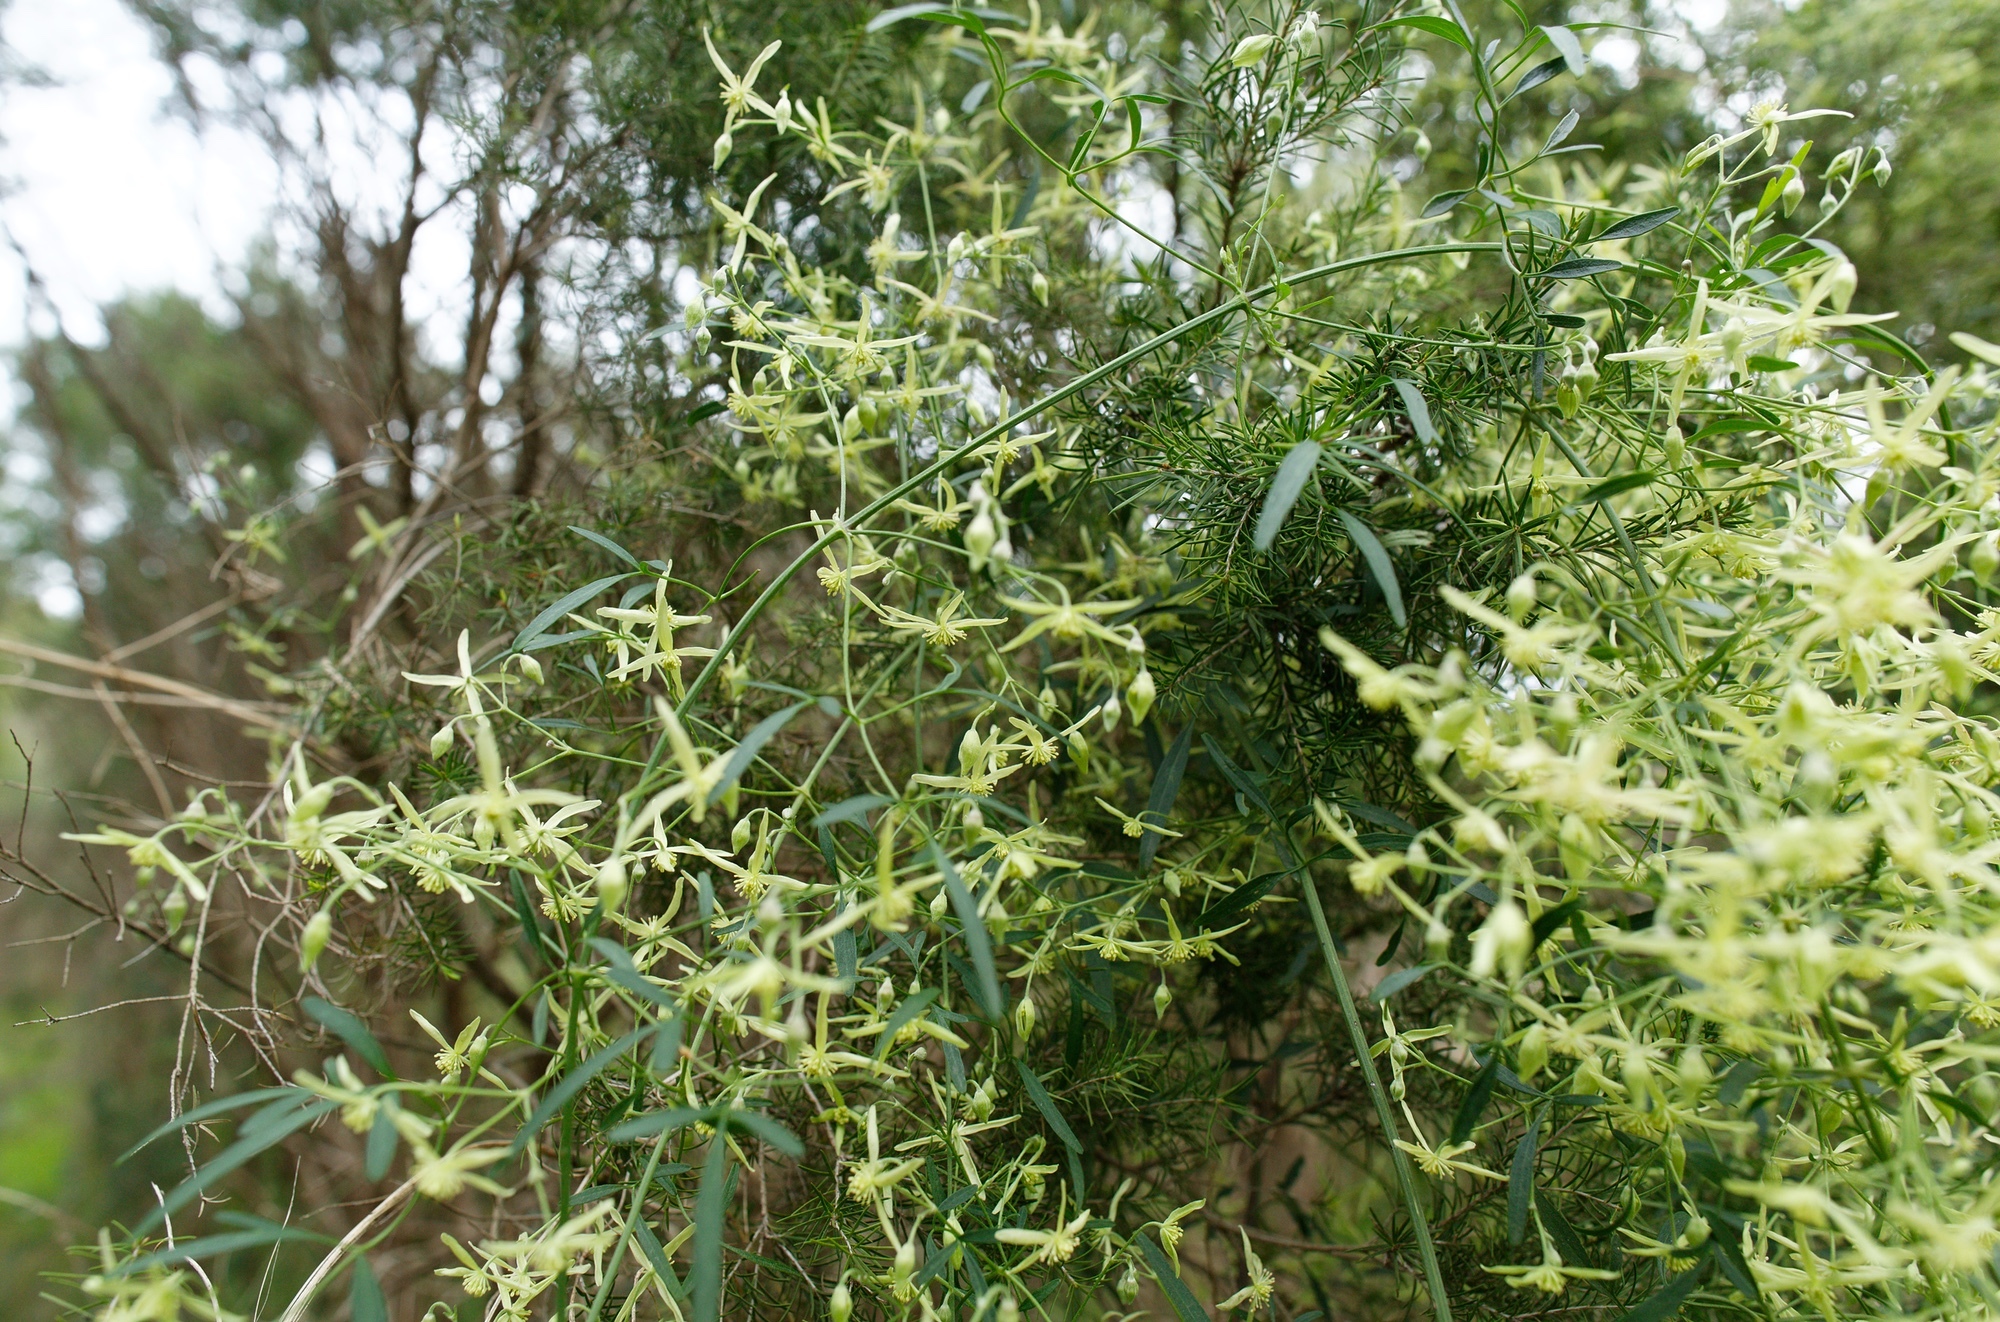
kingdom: Plantae
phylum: Tracheophyta
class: Magnoliopsida
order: Ranunculales
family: Ranunculaceae
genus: Clematis
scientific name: Clematis microphylla
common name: Headachevine
